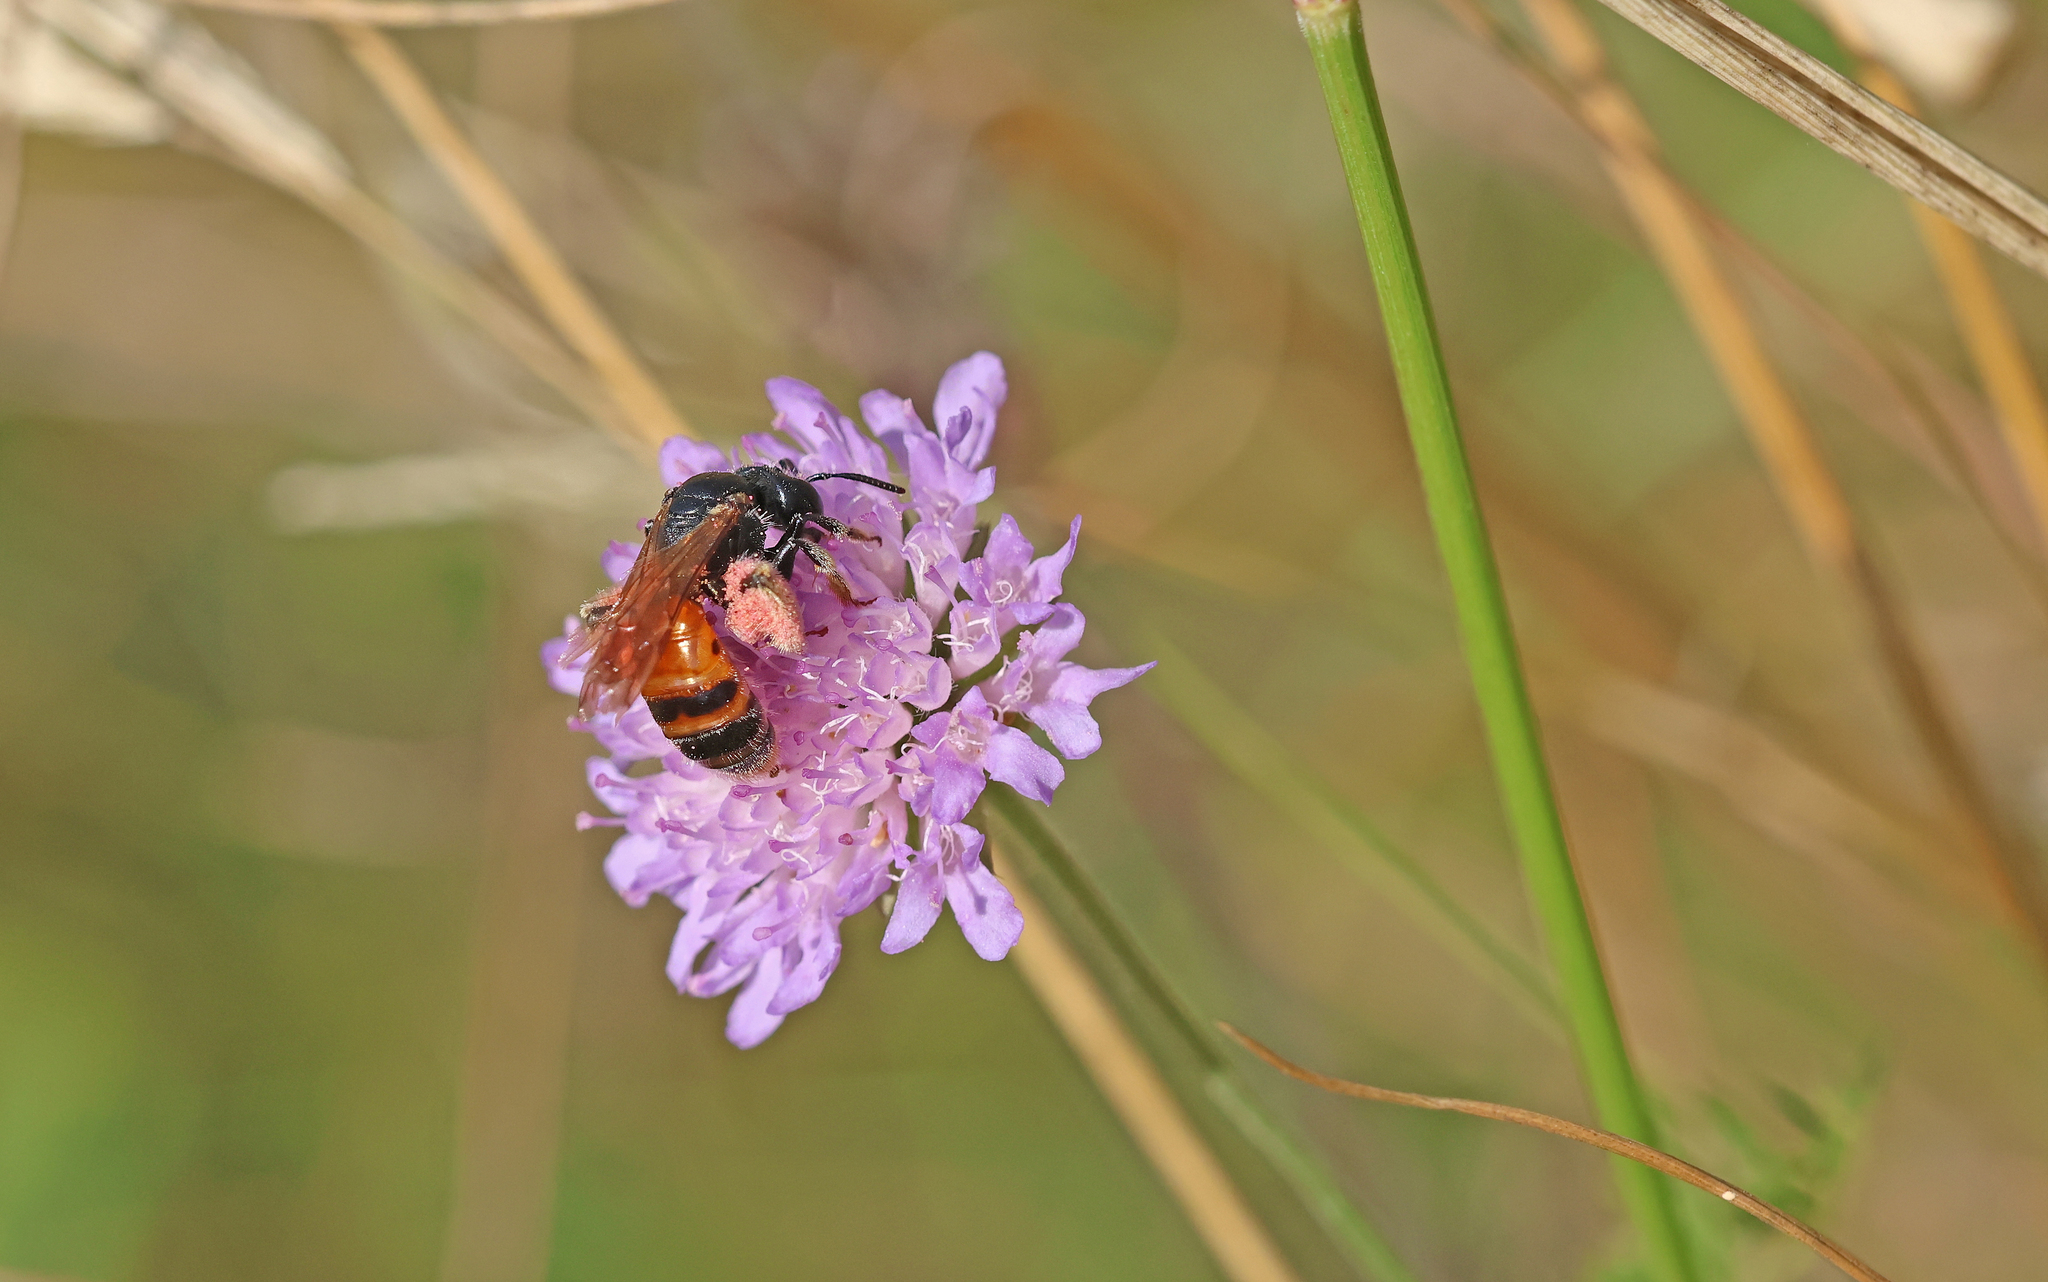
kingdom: Animalia
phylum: Arthropoda
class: Insecta
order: Hymenoptera
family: Andrenidae
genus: Andrena
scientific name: Andrena hattorfiana
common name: Large scabious mining bee
